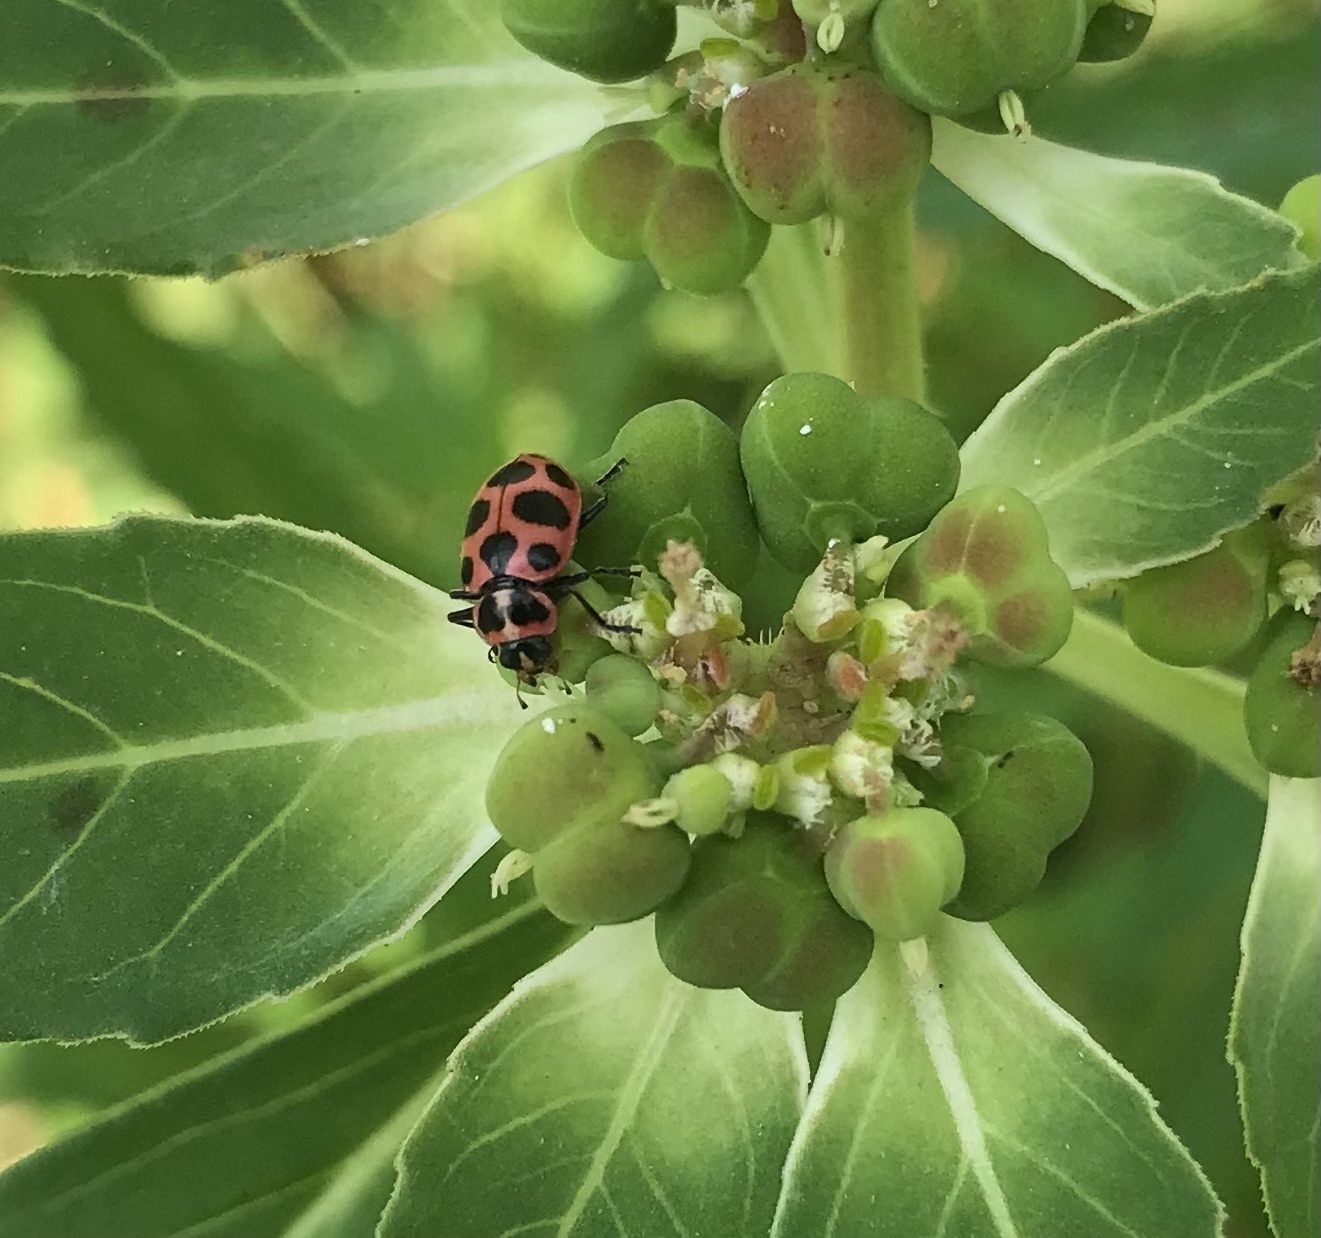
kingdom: Animalia
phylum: Arthropoda
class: Insecta
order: Coleoptera
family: Coccinellidae
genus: Coleomegilla
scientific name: Coleomegilla maculata
